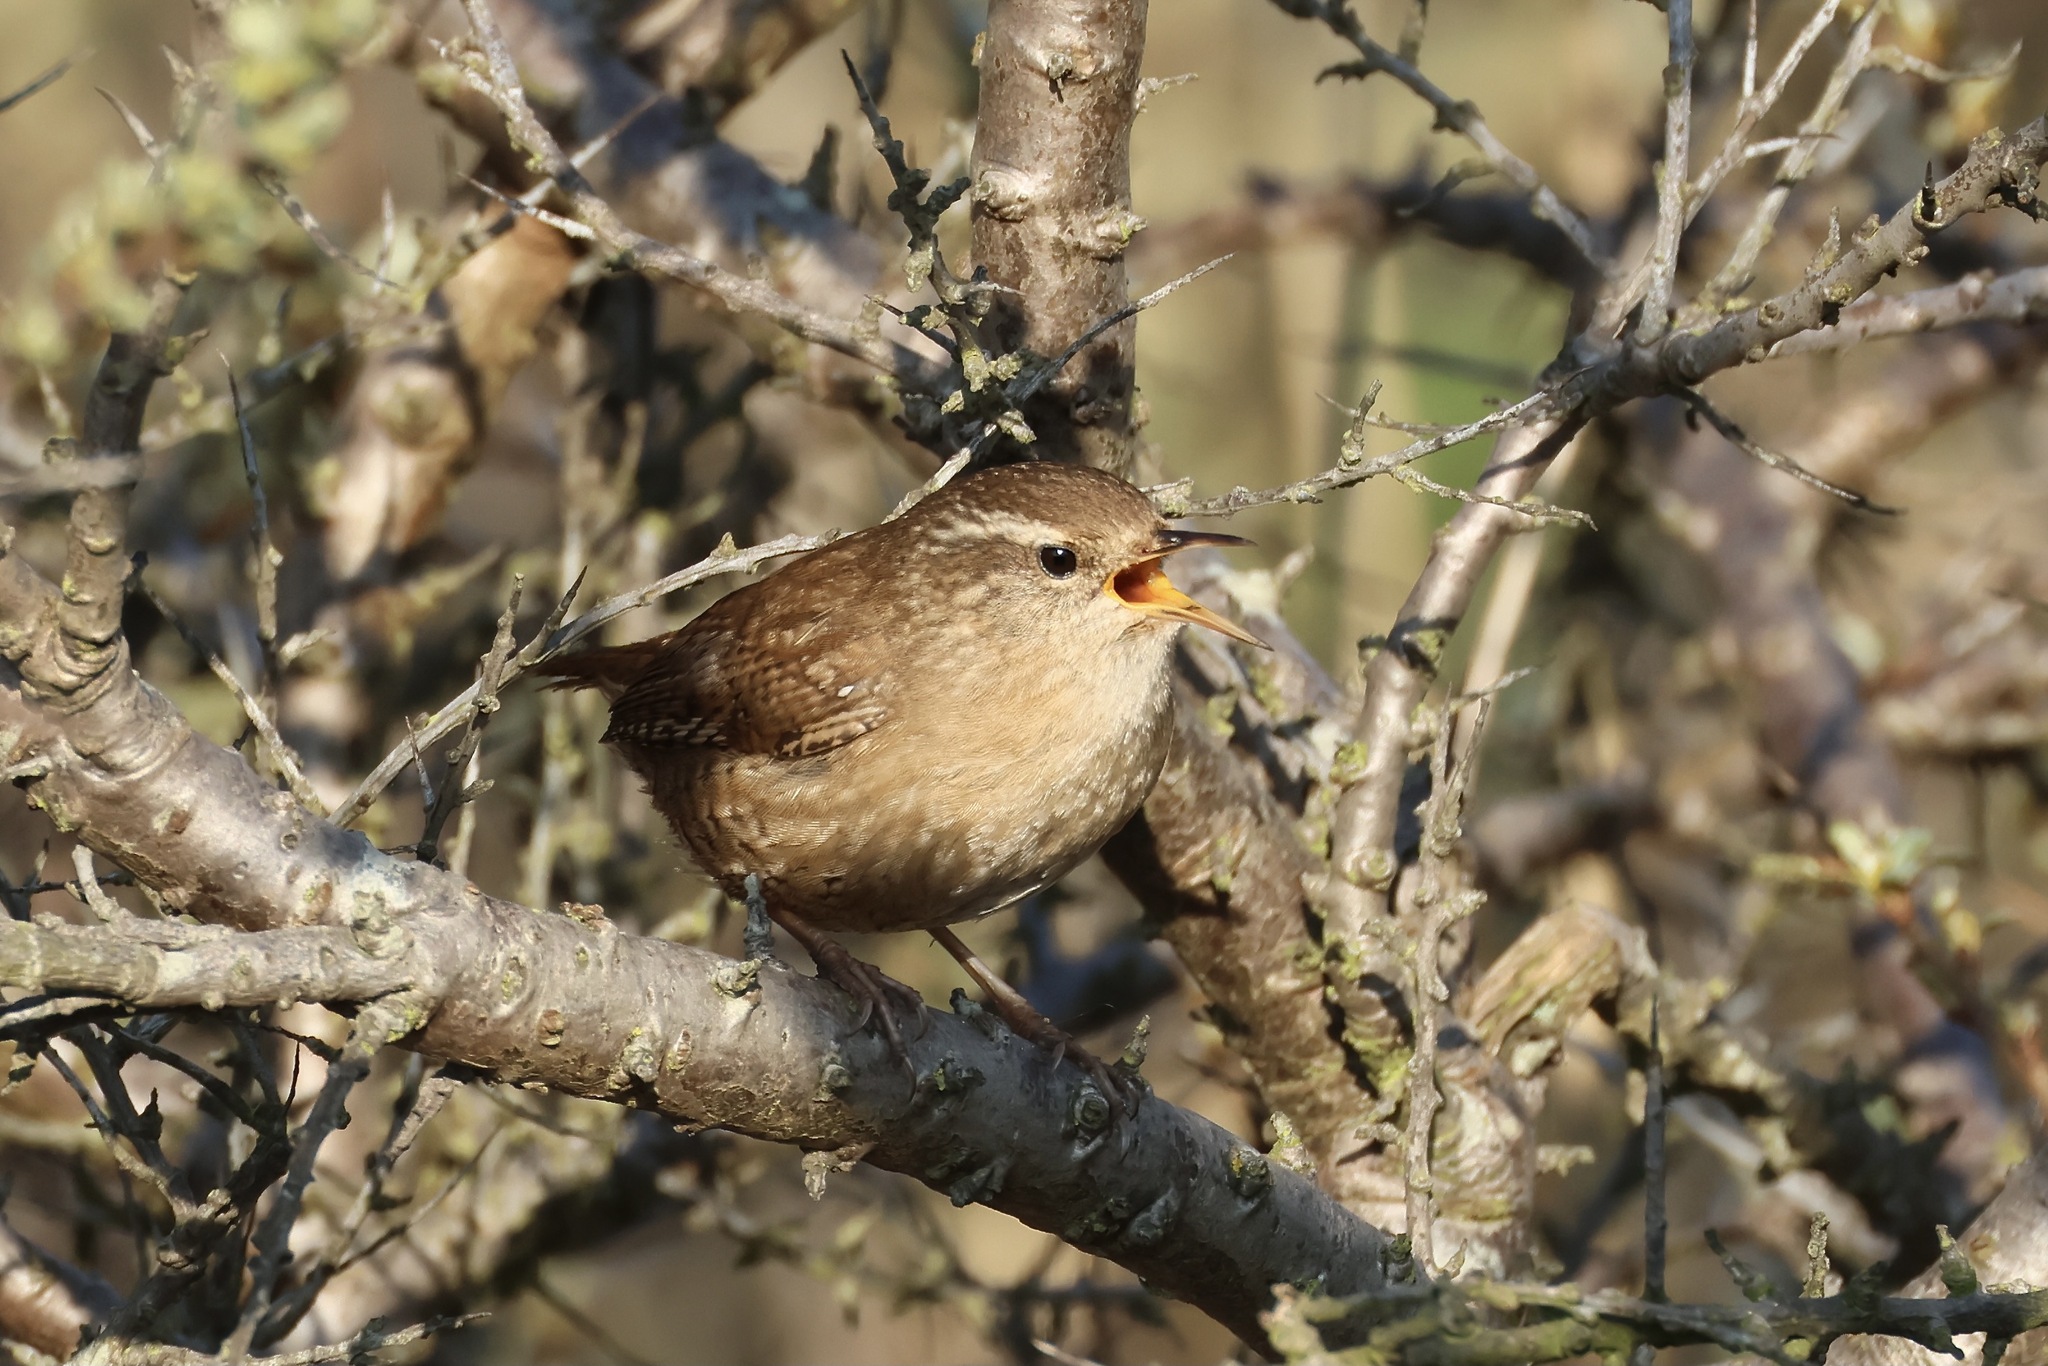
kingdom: Animalia
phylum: Chordata
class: Aves
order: Passeriformes
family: Troglodytidae
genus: Troglodytes
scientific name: Troglodytes troglodytes
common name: Eurasian wren
